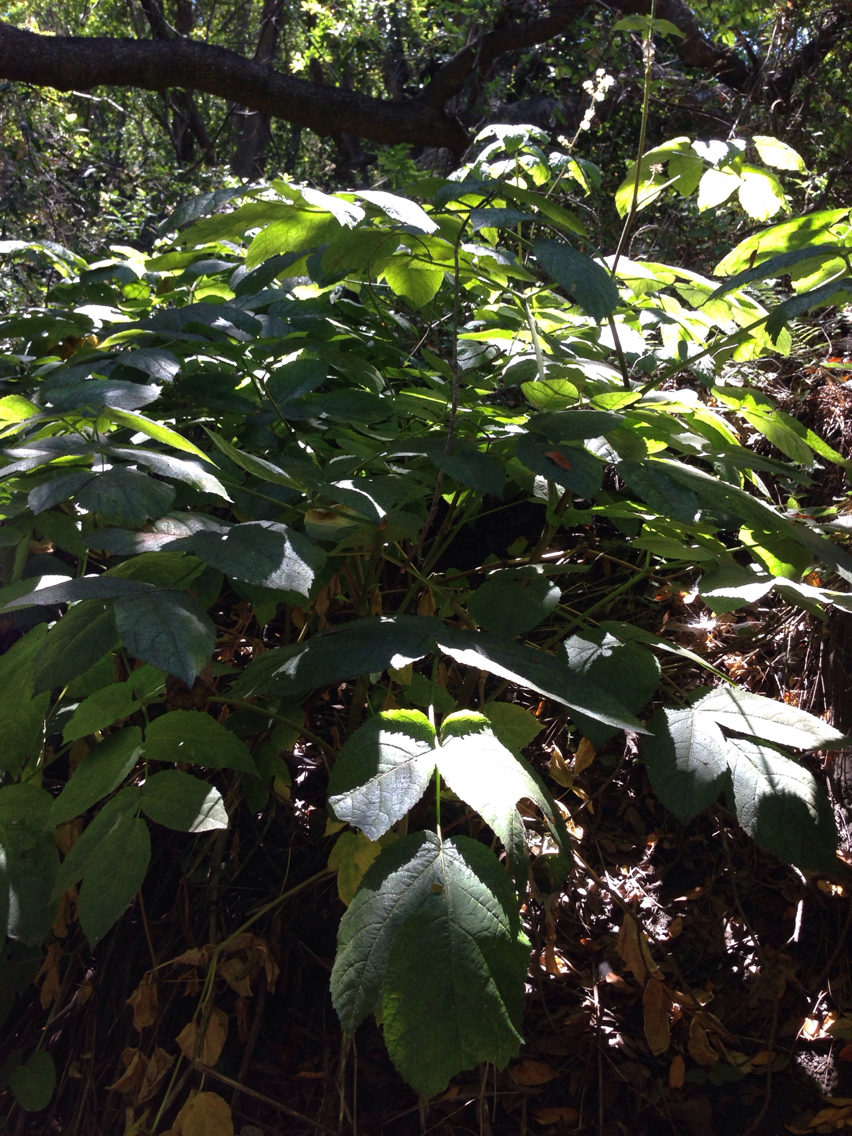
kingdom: Plantae
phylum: Tracheophyta
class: Magnoliopsida
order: Apiales
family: Araliaceae
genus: Aralia
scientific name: Aralia californica
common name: California-ginseng
